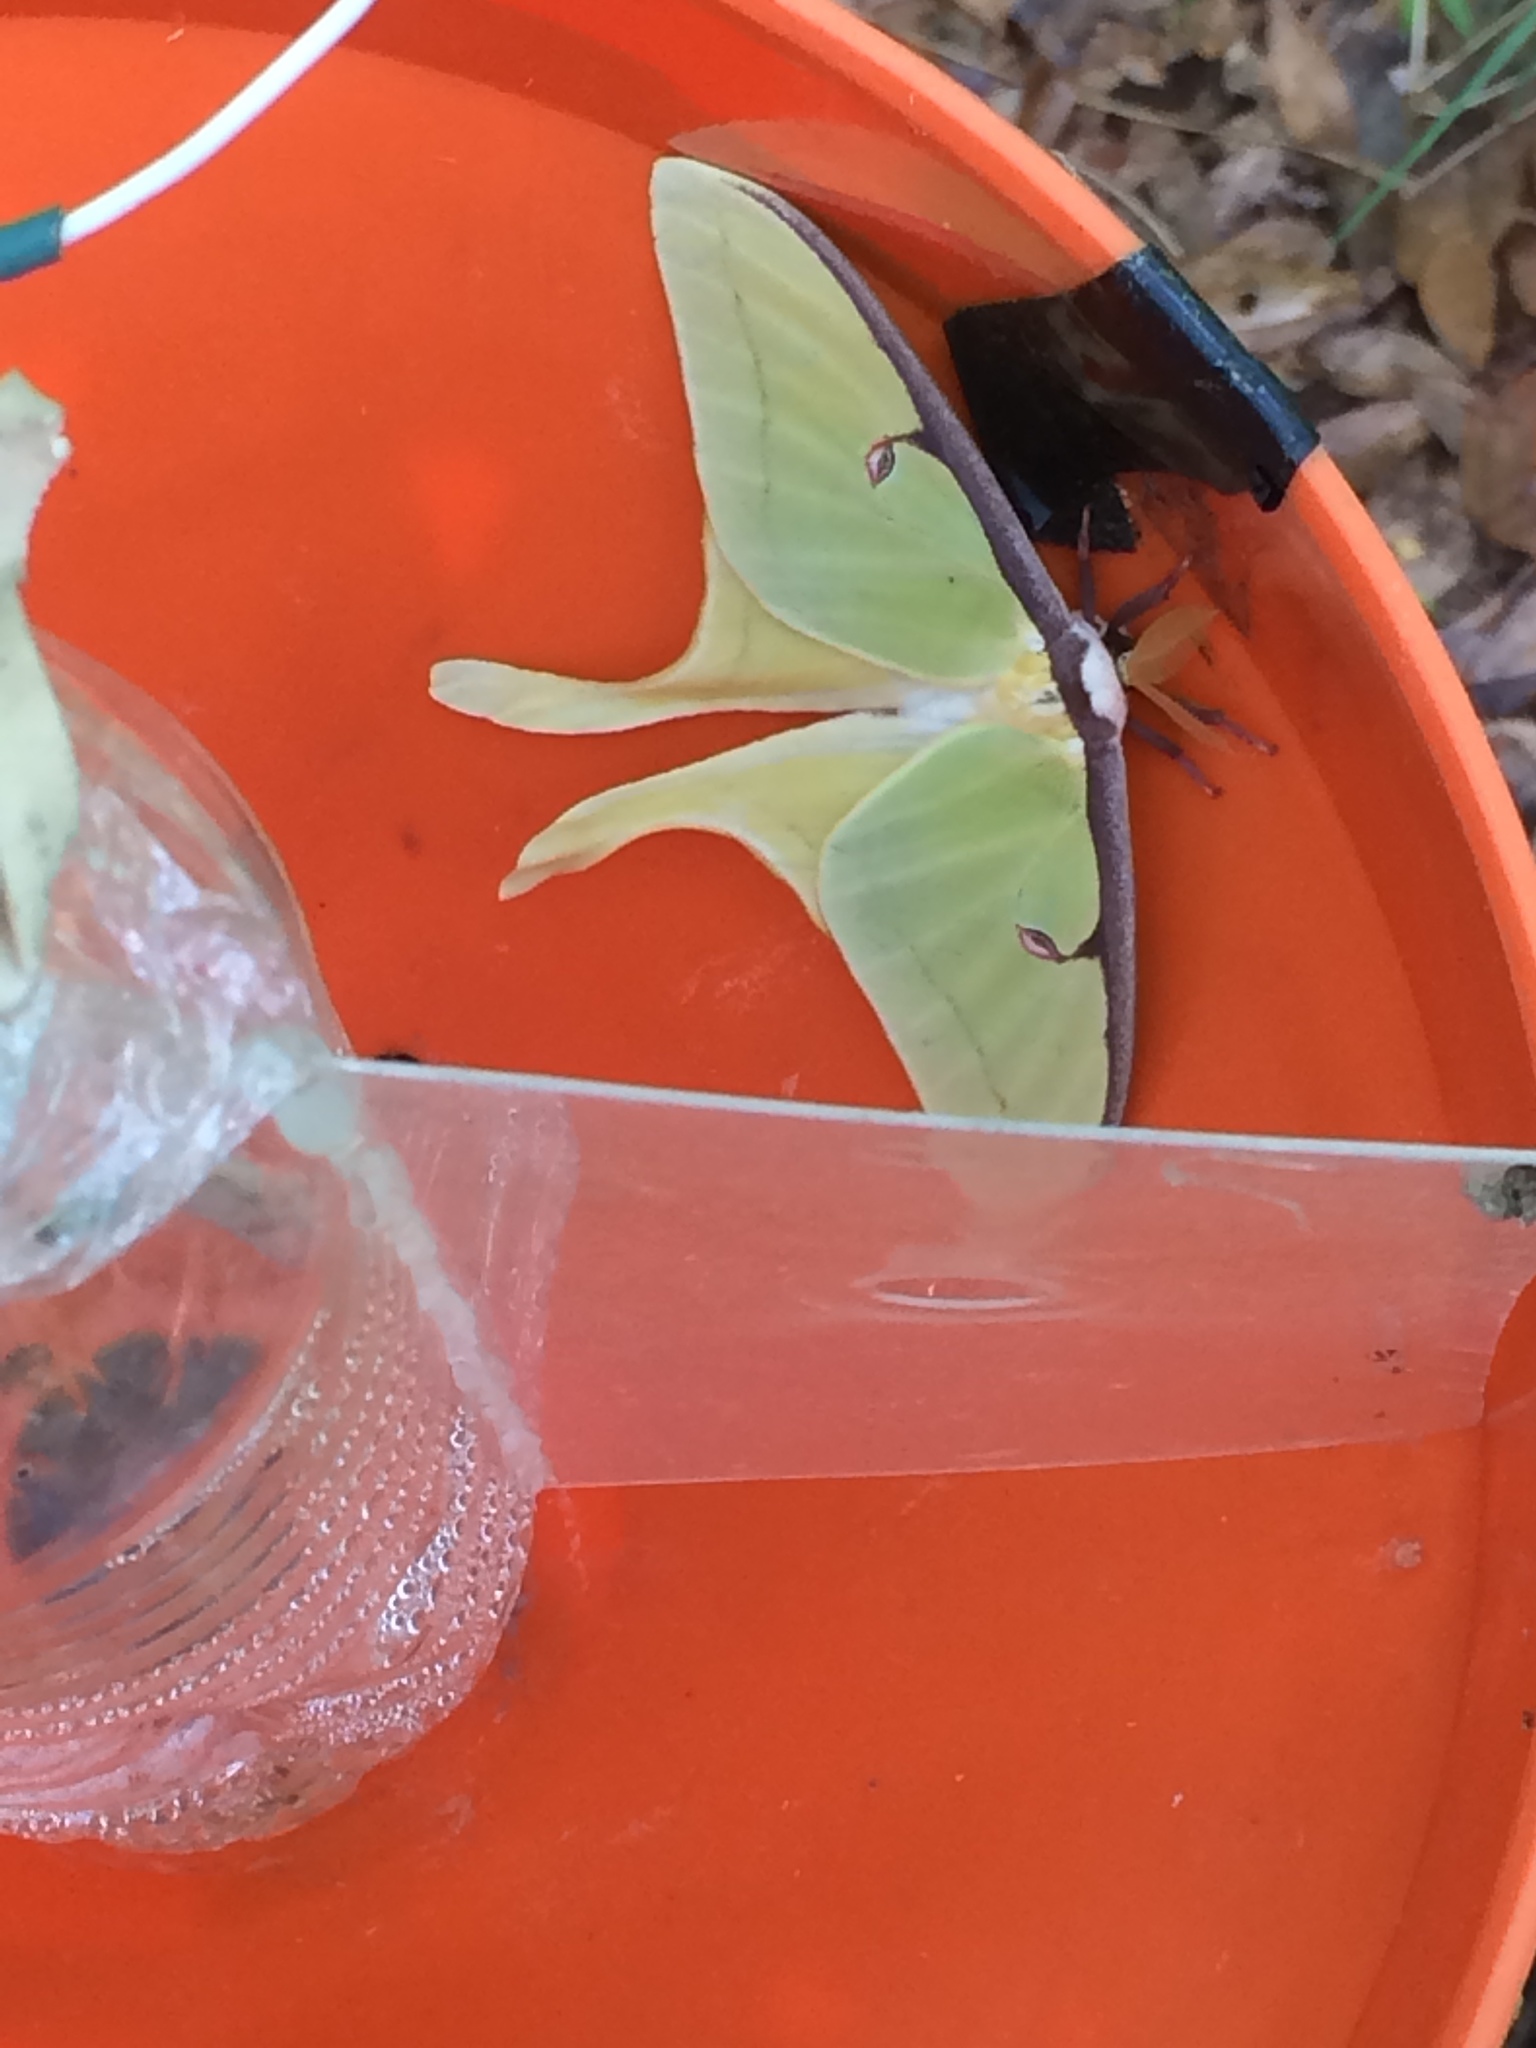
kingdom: Animalia
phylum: Arthropoda
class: Insecta
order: Lepidoptera
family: Saturniidae
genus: Actias
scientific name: Actias luna
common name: Luna moth
